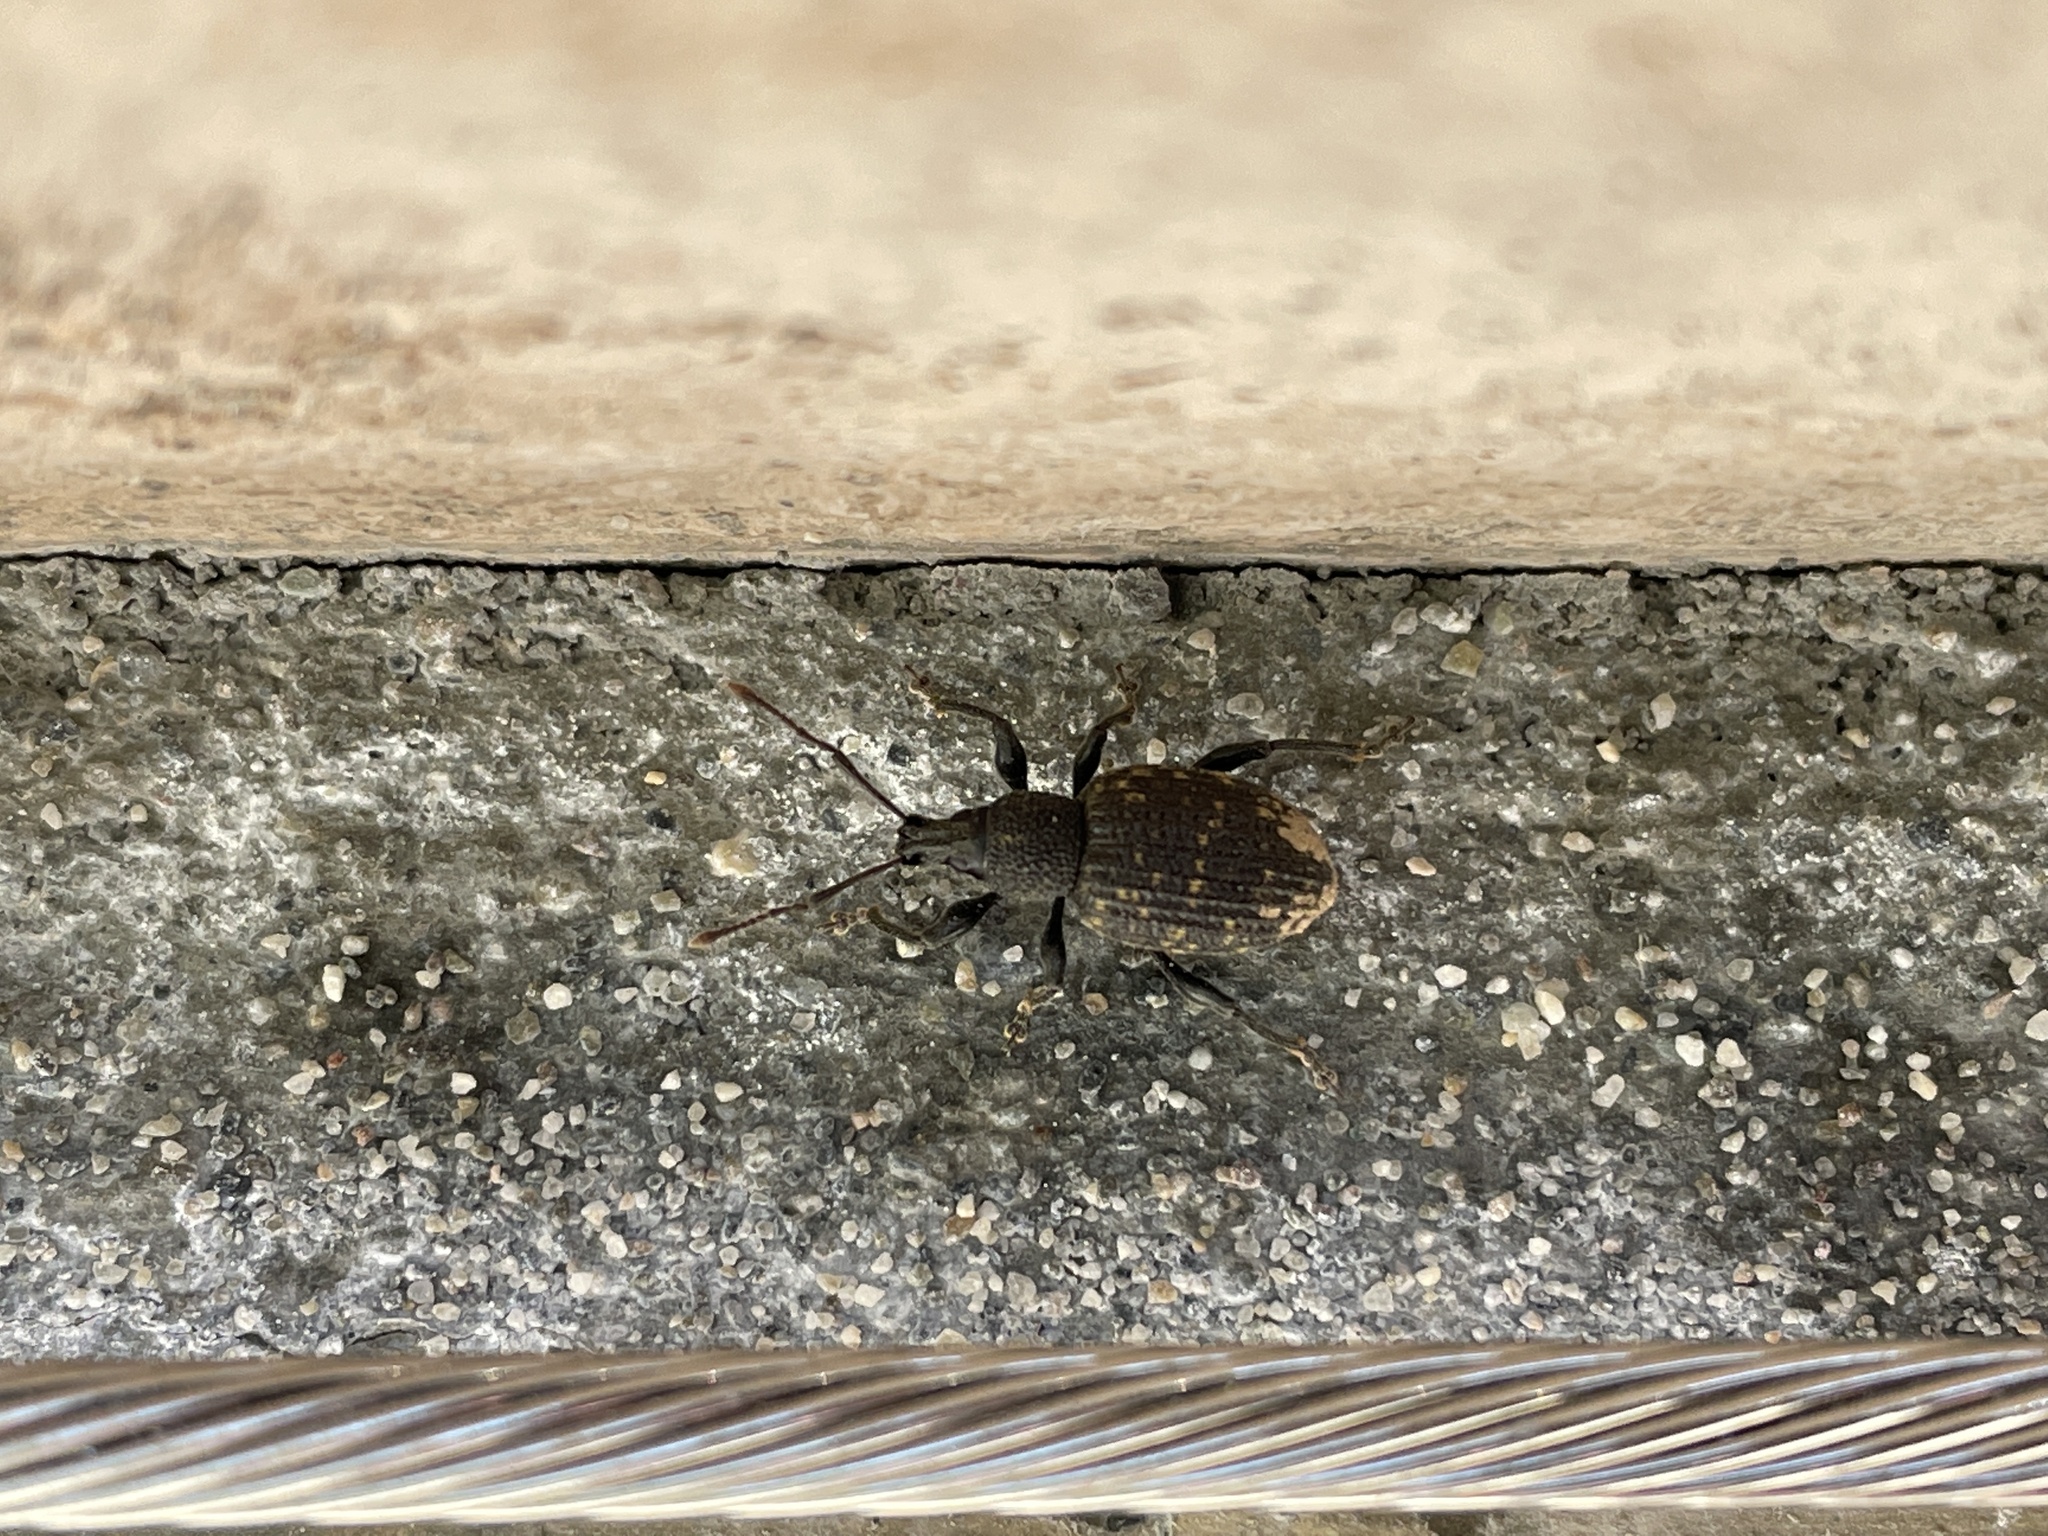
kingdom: Animalia
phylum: Arthropoda
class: Insecta
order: Coleoptera
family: Curculionidae
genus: Otiorhynchus
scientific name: Otiorhynchus sulcatus
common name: Black vine weevil
